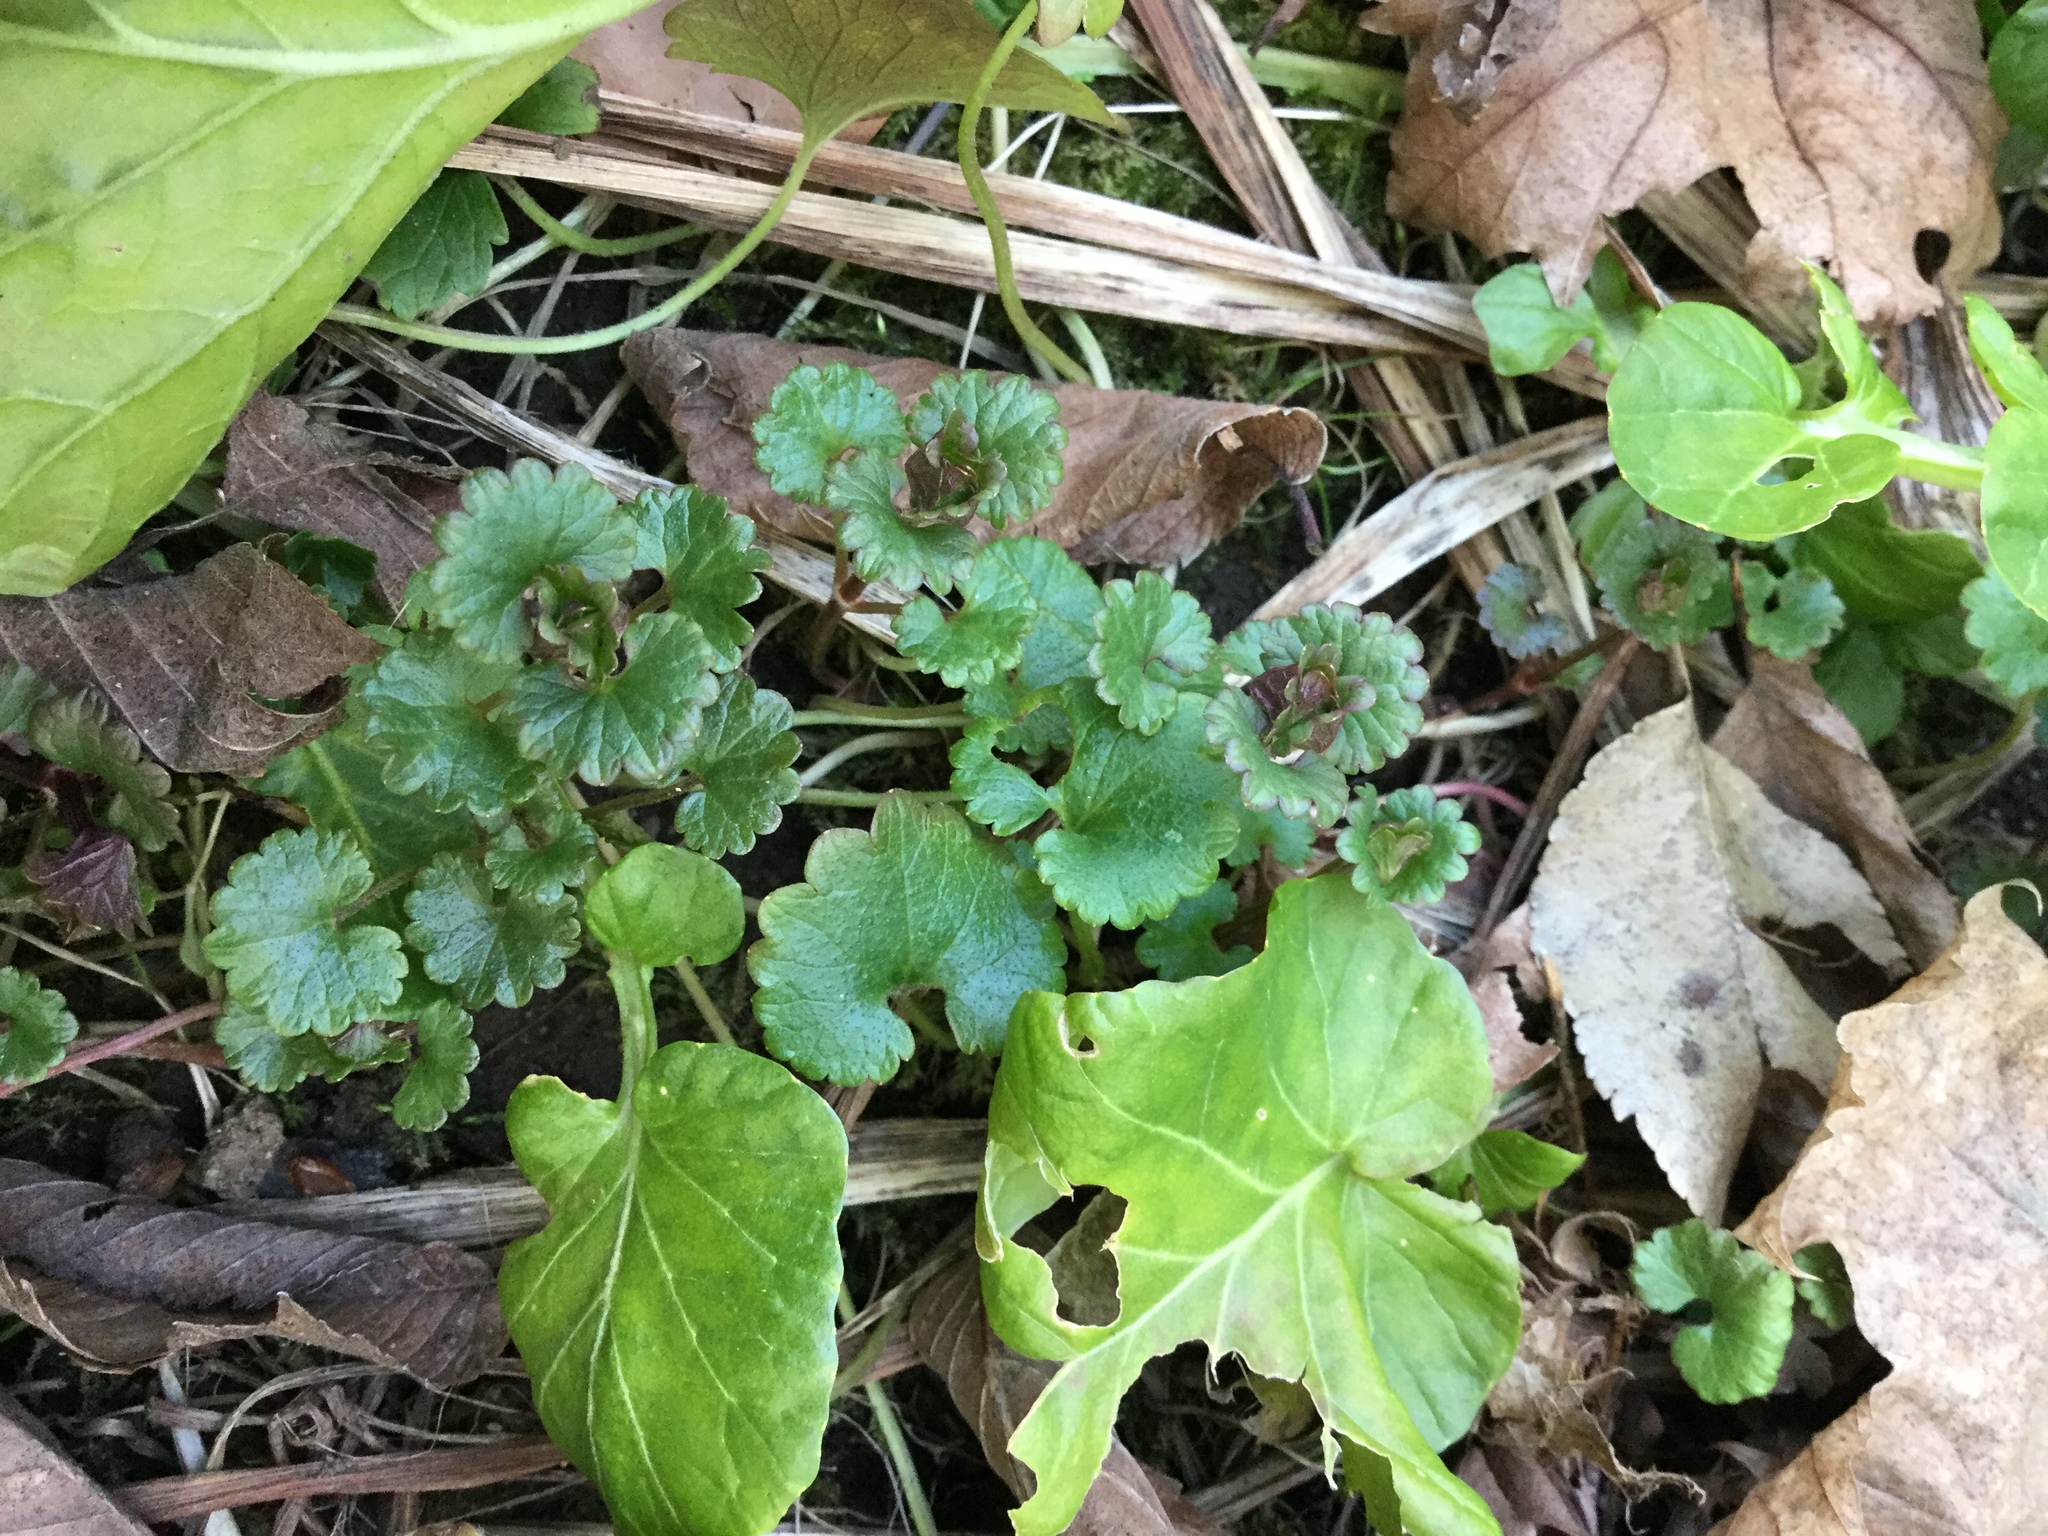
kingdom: Plantae
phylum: Tracheophyta
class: Magnoliopsida
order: Lamiales
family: Lamiaceae
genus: Glechoma
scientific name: Glechoma hederacea
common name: Ground ivy
